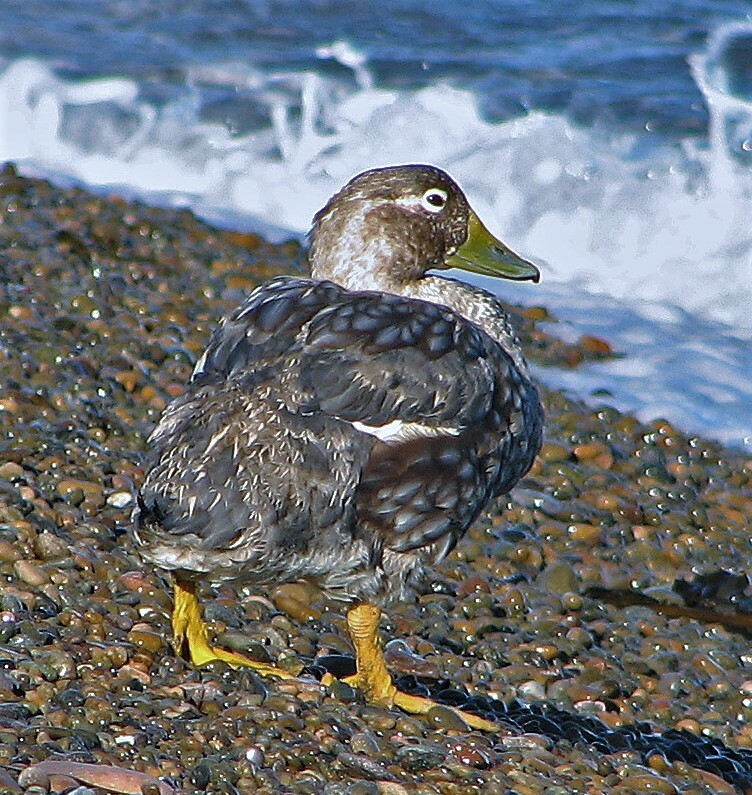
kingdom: Animalia
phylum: Chordata
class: Aves
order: Anseriformes
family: Anatidae
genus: Tachyeres
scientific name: Tachyeres leucocephalus
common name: Chubut steamer duck
